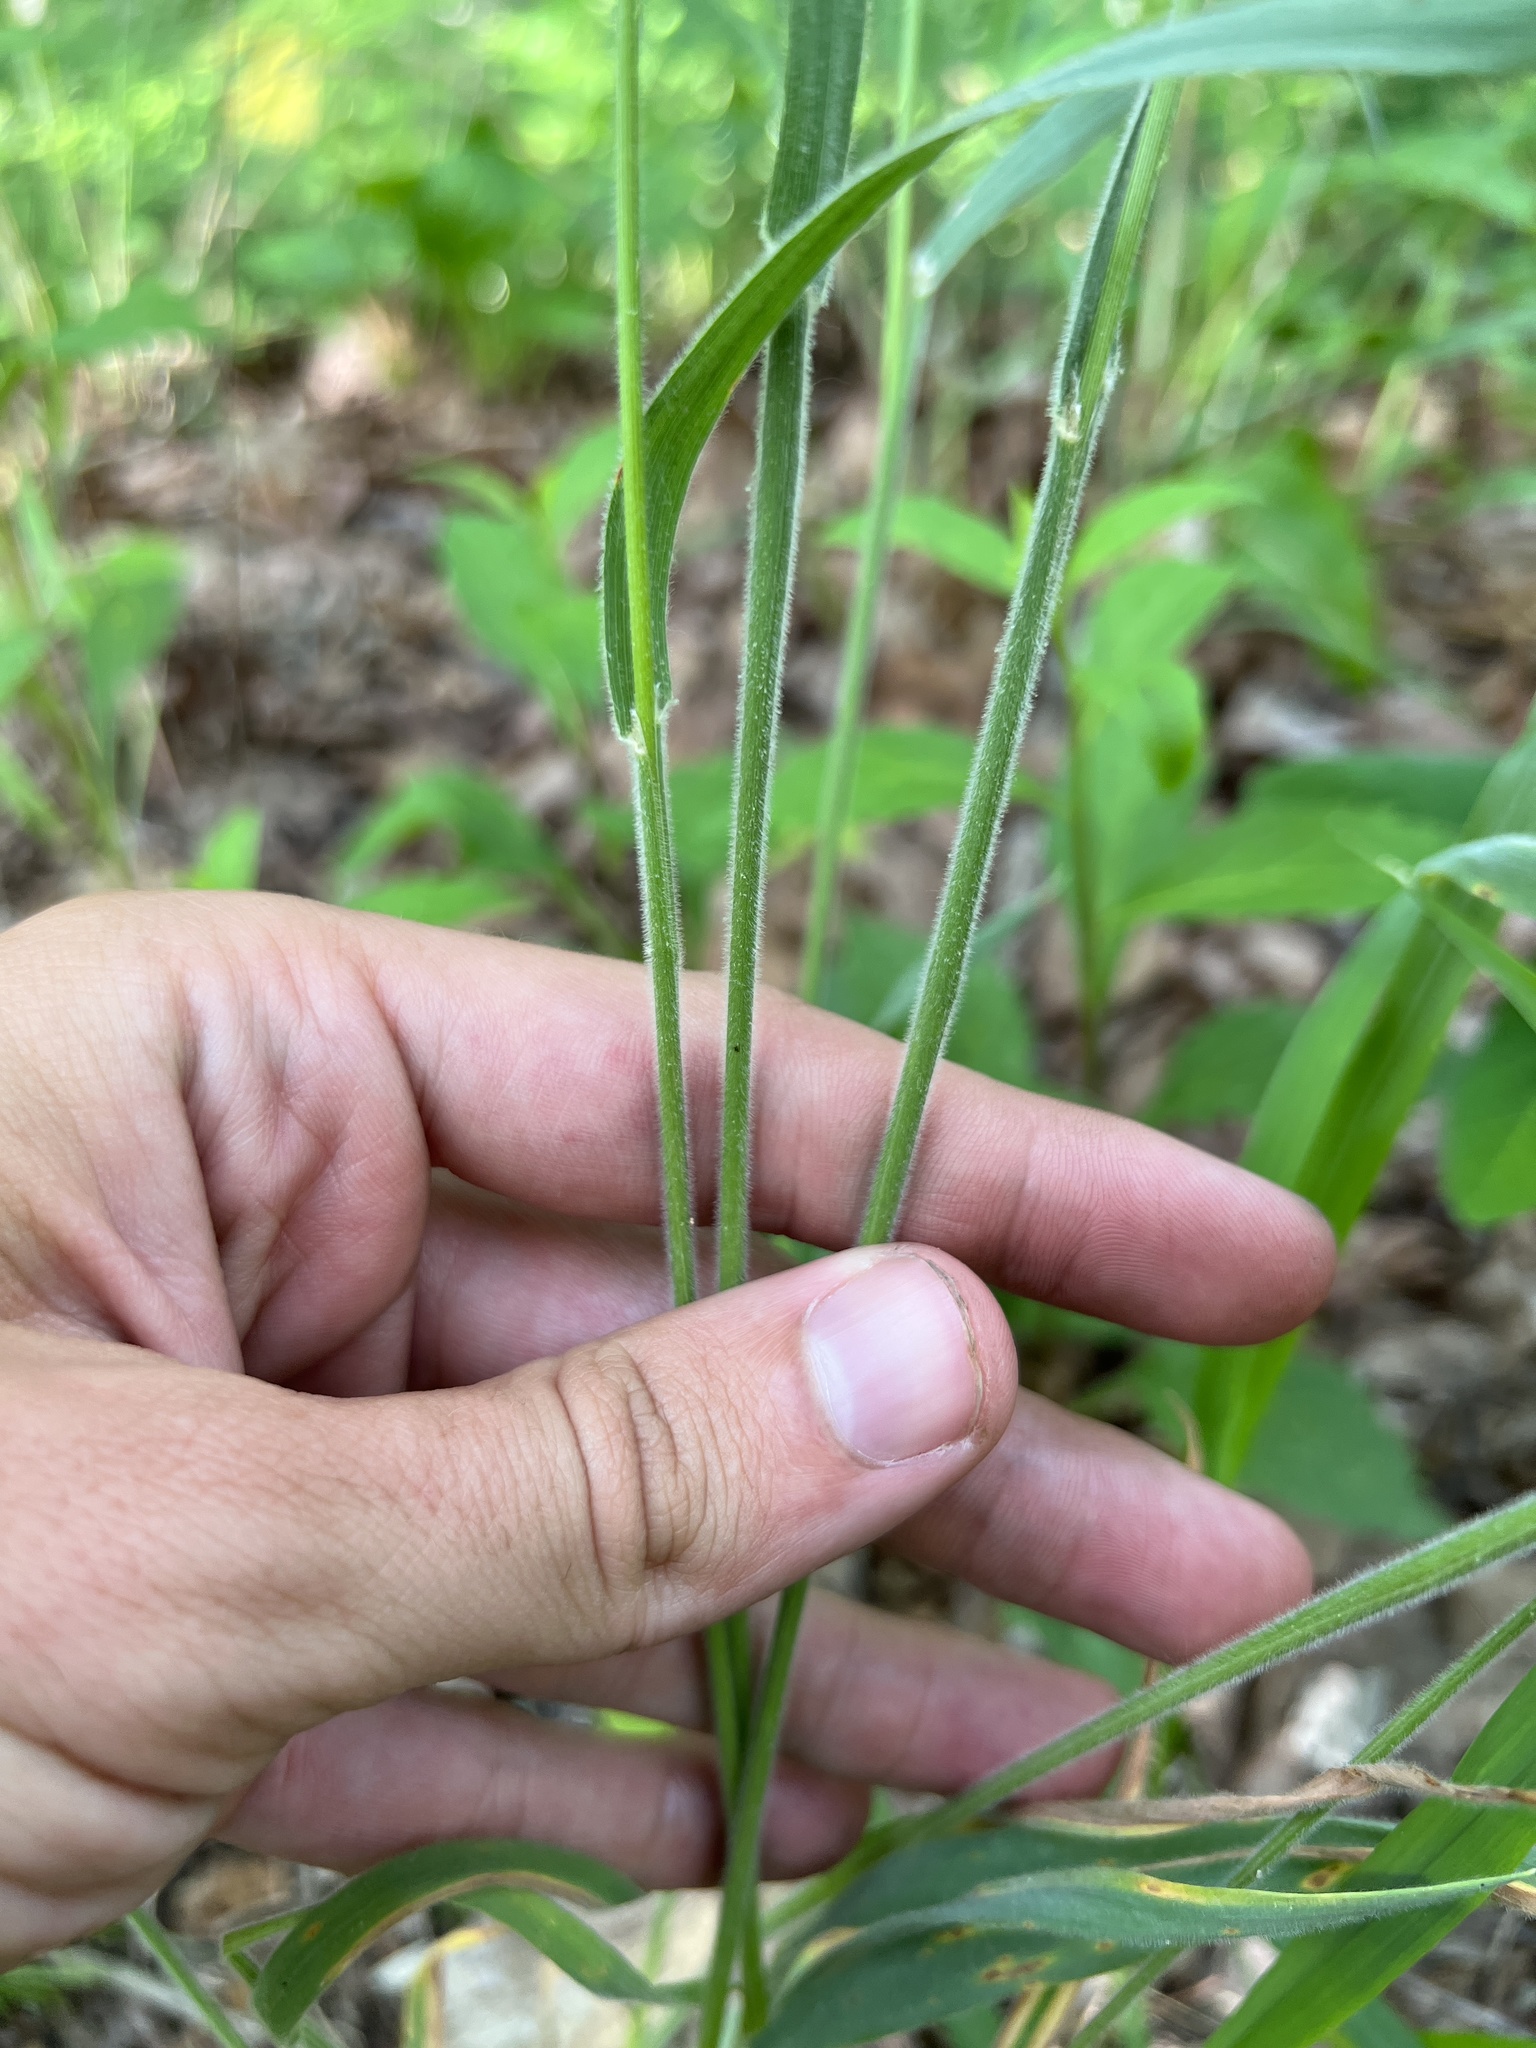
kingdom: Plantae
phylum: Tracheophyta
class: Liliopsida
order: Poales
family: Poaceae
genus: Sphenopholis
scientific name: Sphenopholis obtusata
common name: Prairie grass
